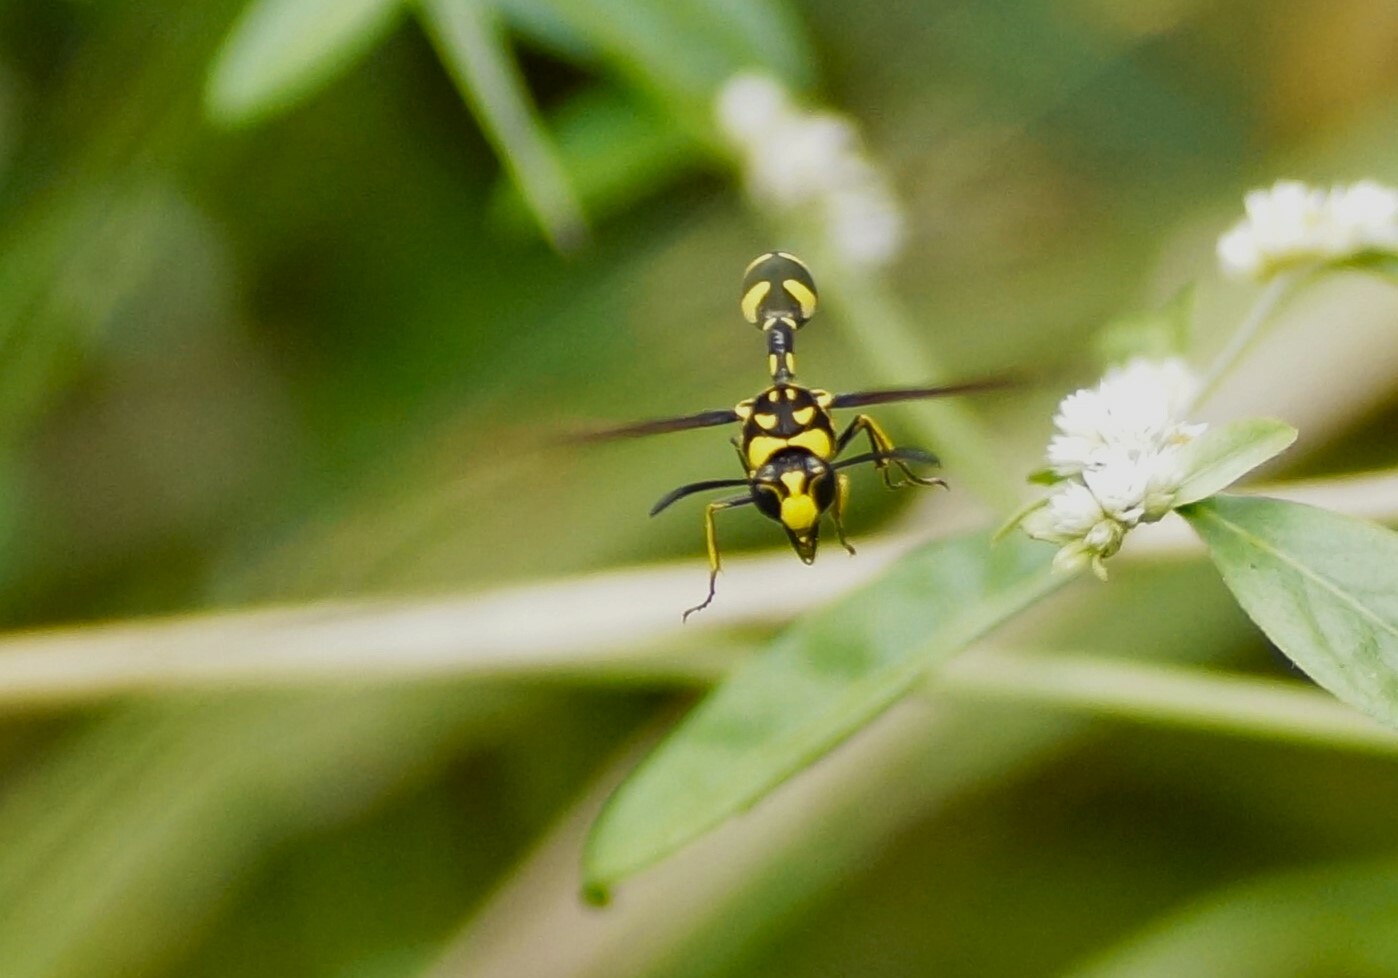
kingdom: Animalia
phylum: Arthropoda
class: Insecta
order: Hymenoptera
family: Eumenidae
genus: Phimenes
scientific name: Phimenes arcuatus
